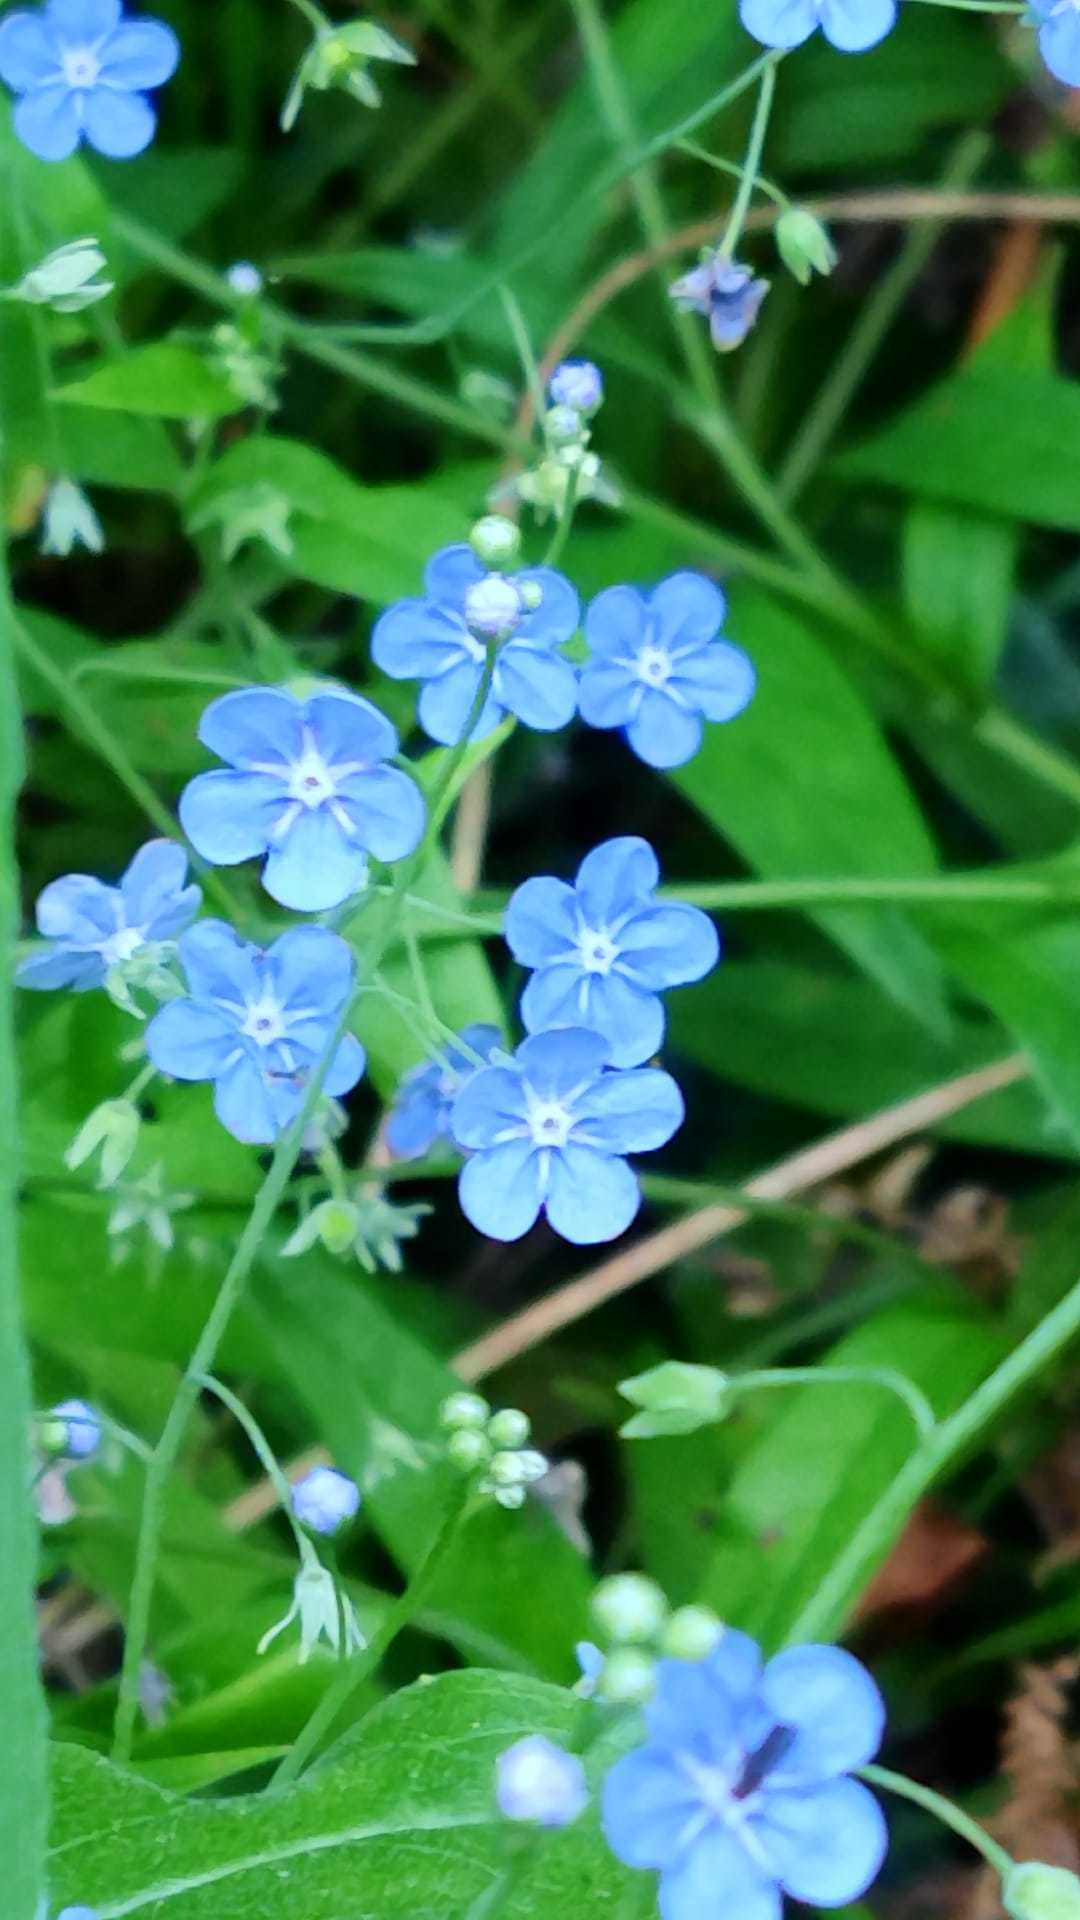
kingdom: Plantae
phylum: Tracheophyta
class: Magnoliopsida
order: Boraginales
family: Boraginaceae
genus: Omphalodes
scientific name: Omphalodes nitida
